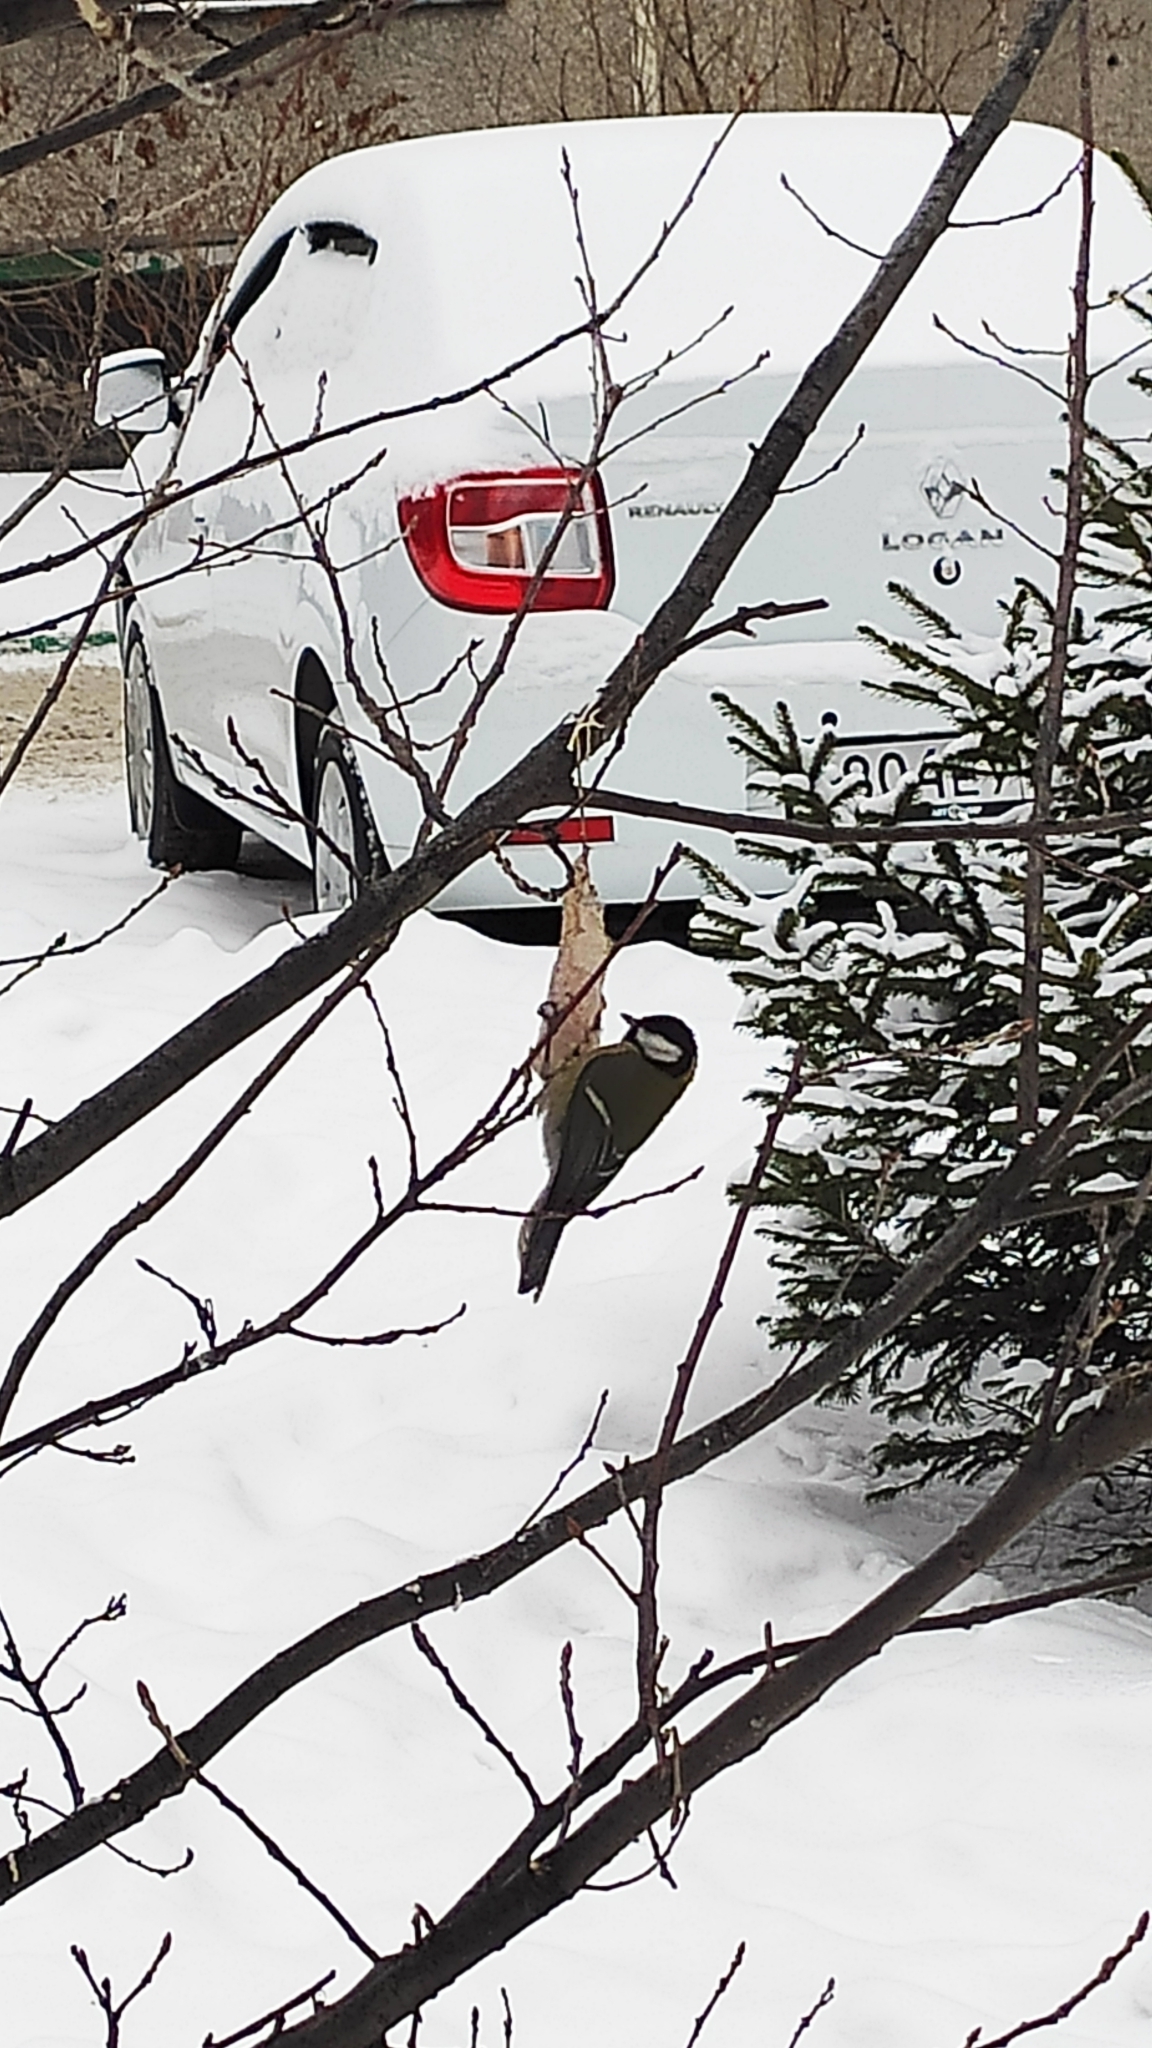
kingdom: Animalia
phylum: Chordata
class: Aves
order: Passeriformes
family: Paridae
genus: Parus
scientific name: Parus major
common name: Great tit
